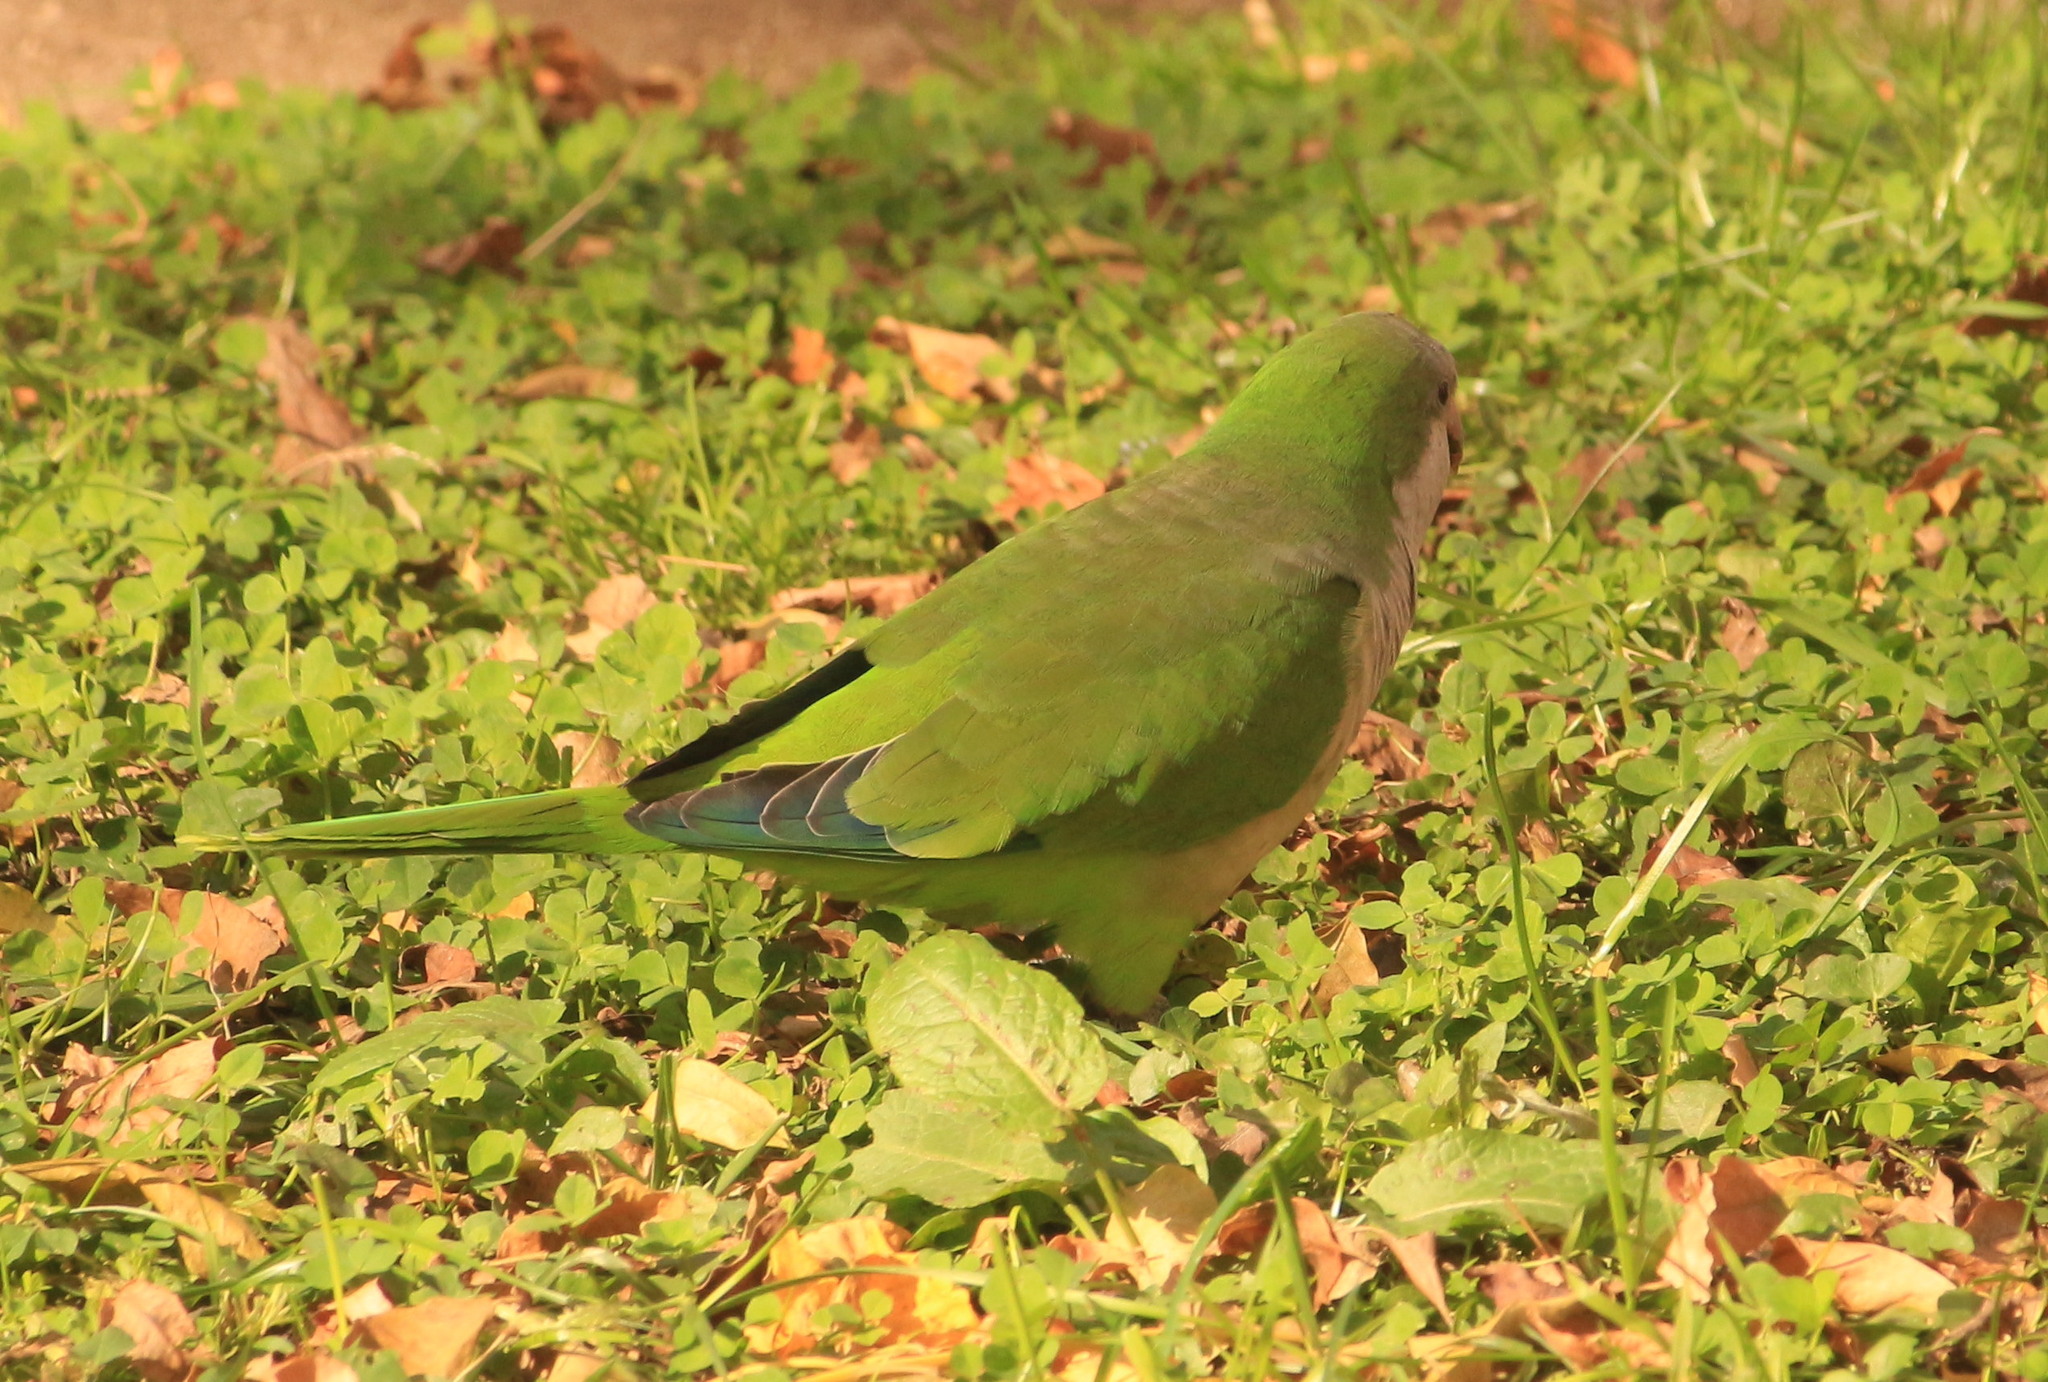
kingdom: Animalia
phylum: Chordata
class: Aves
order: Psittaciformes
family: Psittacidae
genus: Myiopsitta
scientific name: Myiopsitta monachus
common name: Monk parakeet
